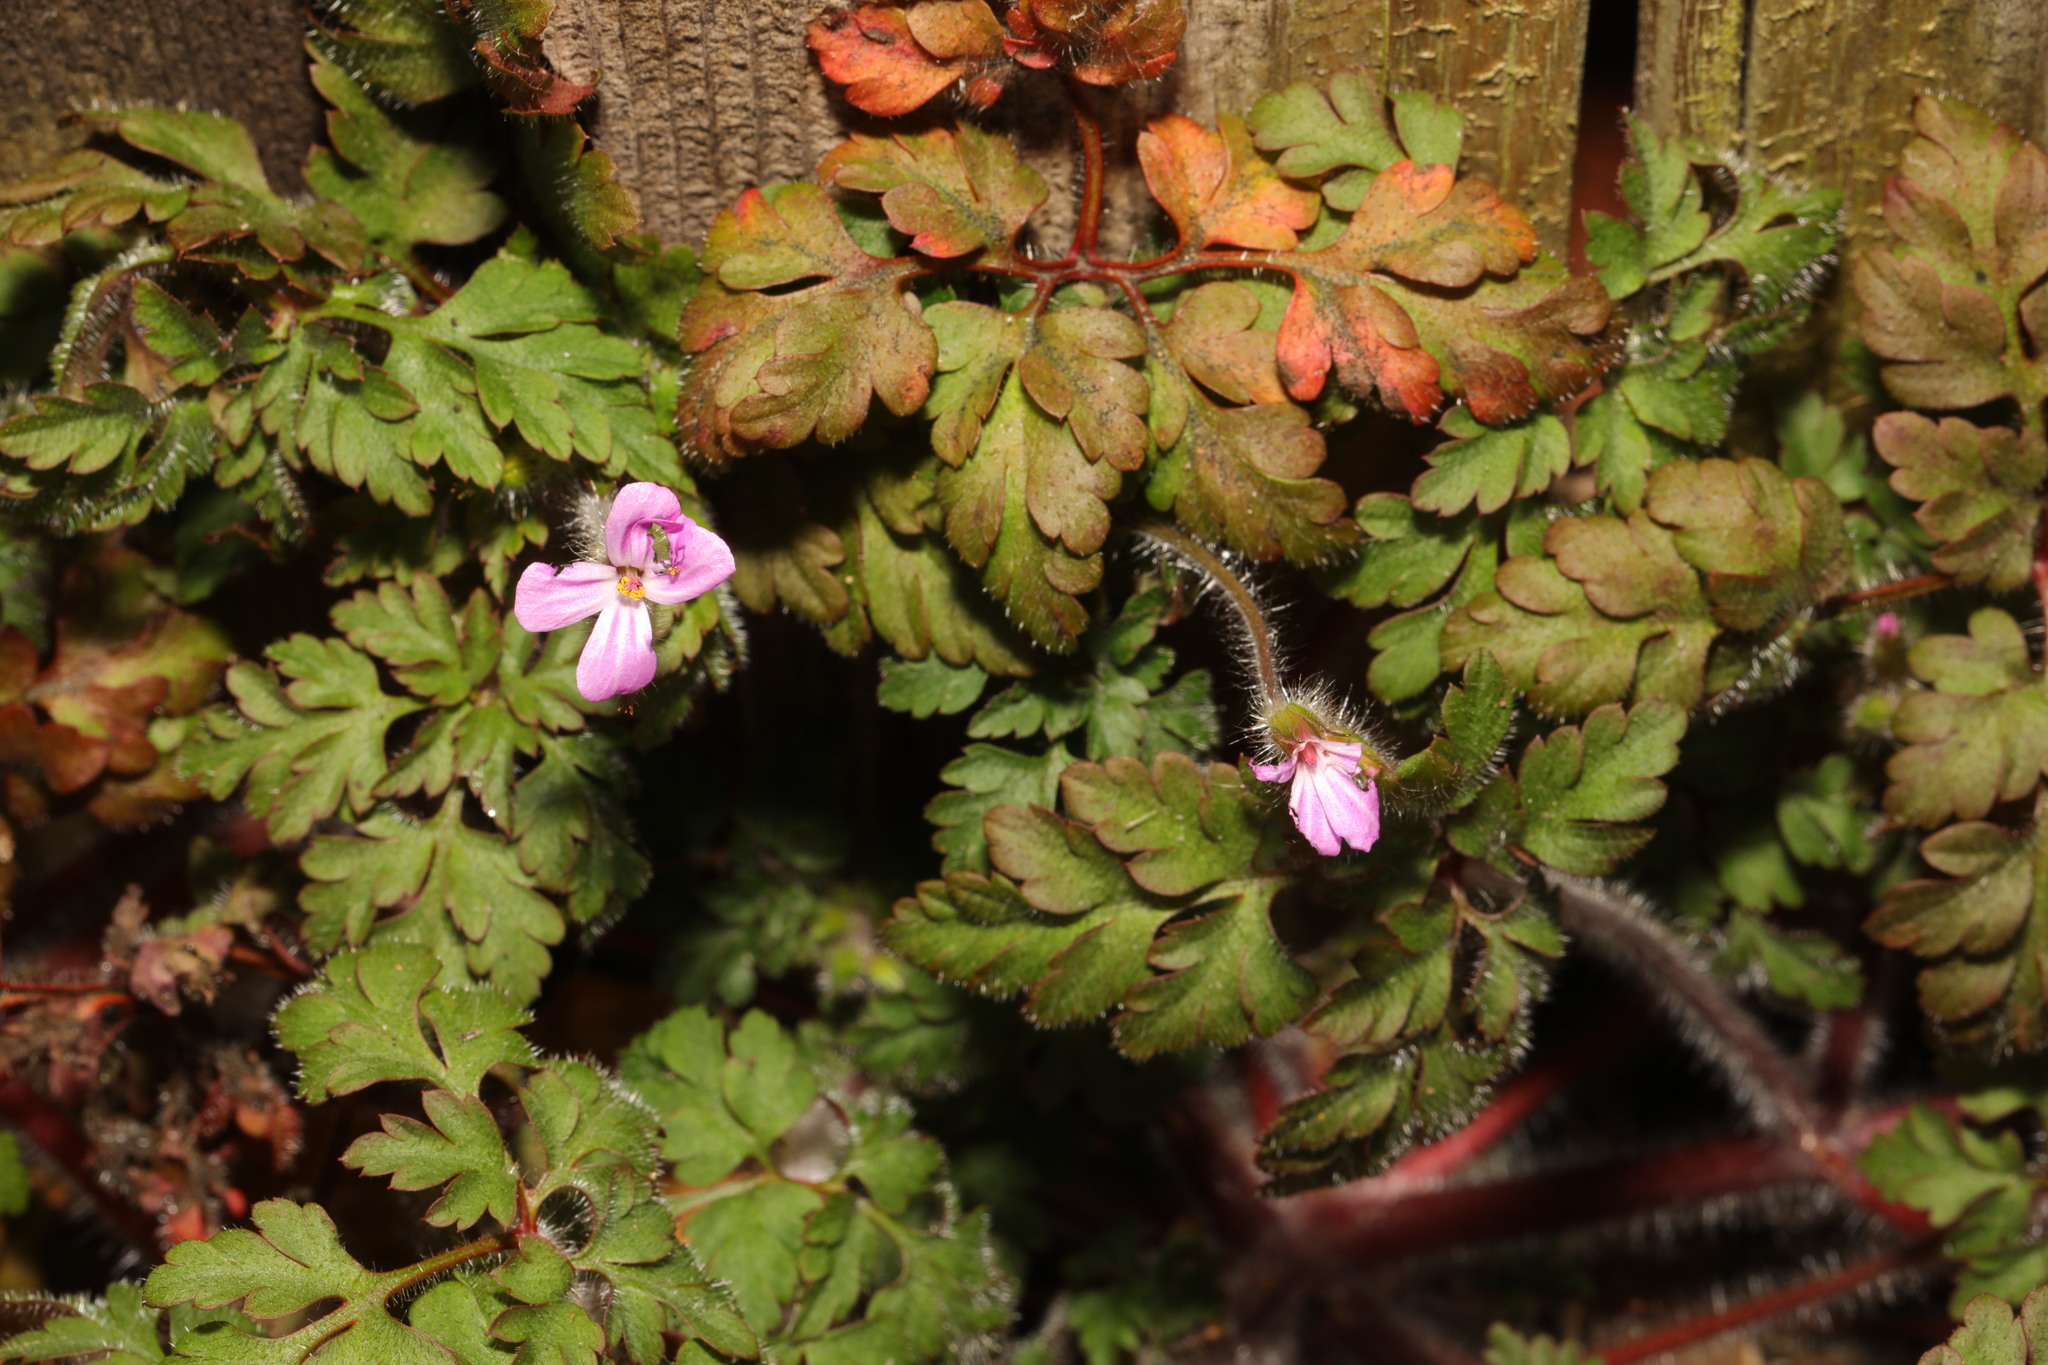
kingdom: Plantae
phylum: Tracheophyta
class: Magnoliopsida
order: Geraniales
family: Geraniaceae
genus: Geranium
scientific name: Geranium robertianum
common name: Herb-robert
